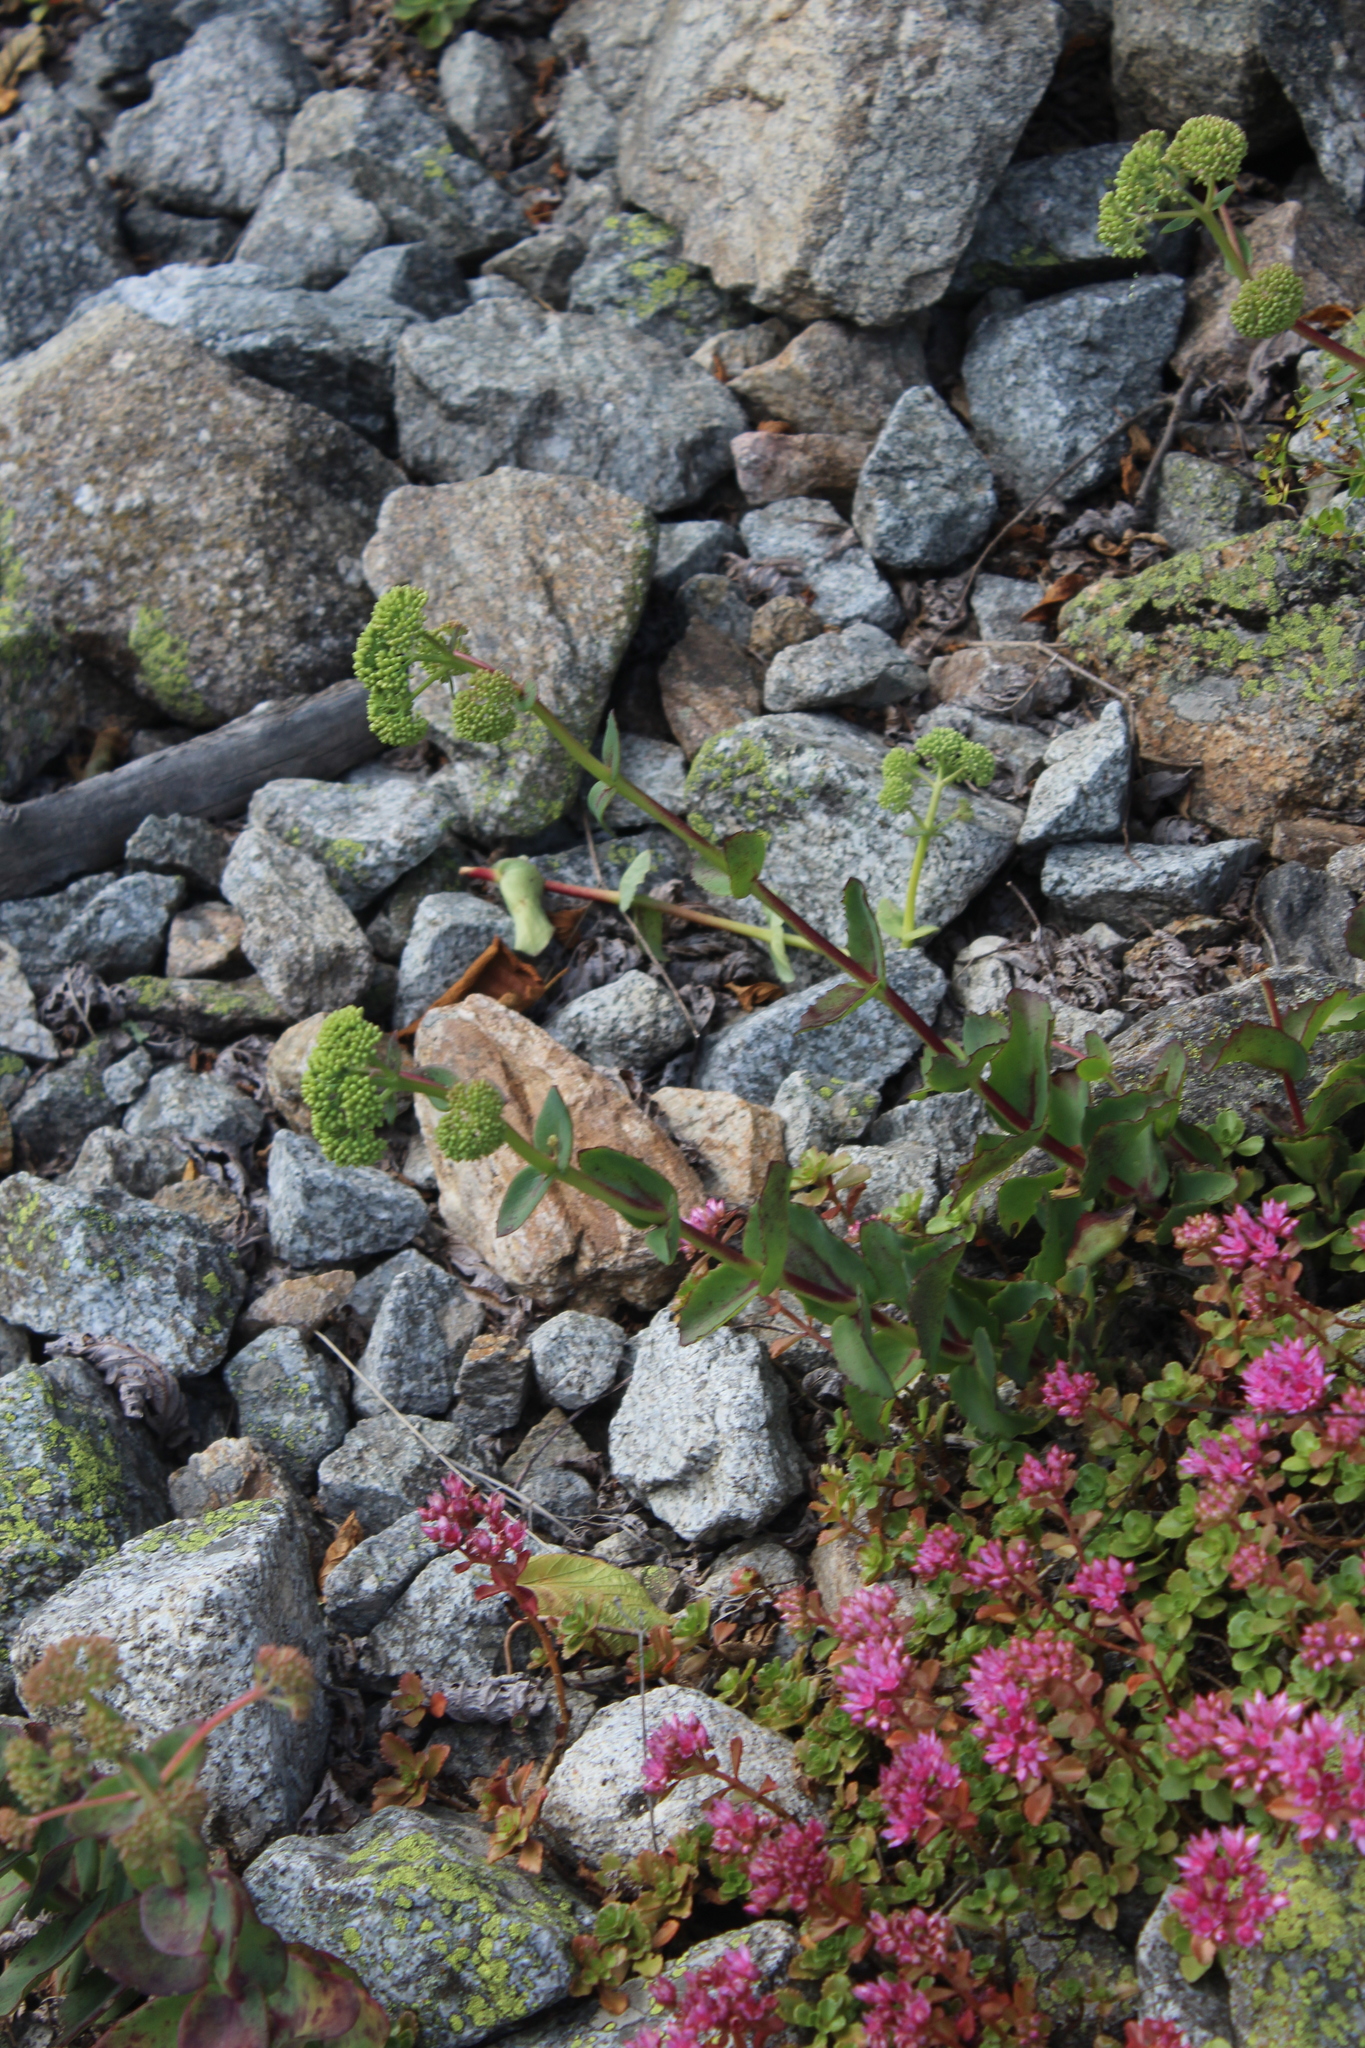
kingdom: Plantae
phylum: Tracheophyta
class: Magnoliopsida
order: Saxifragales
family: Crassulaceae
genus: Hylotelephium
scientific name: Hylotelephium maximum
